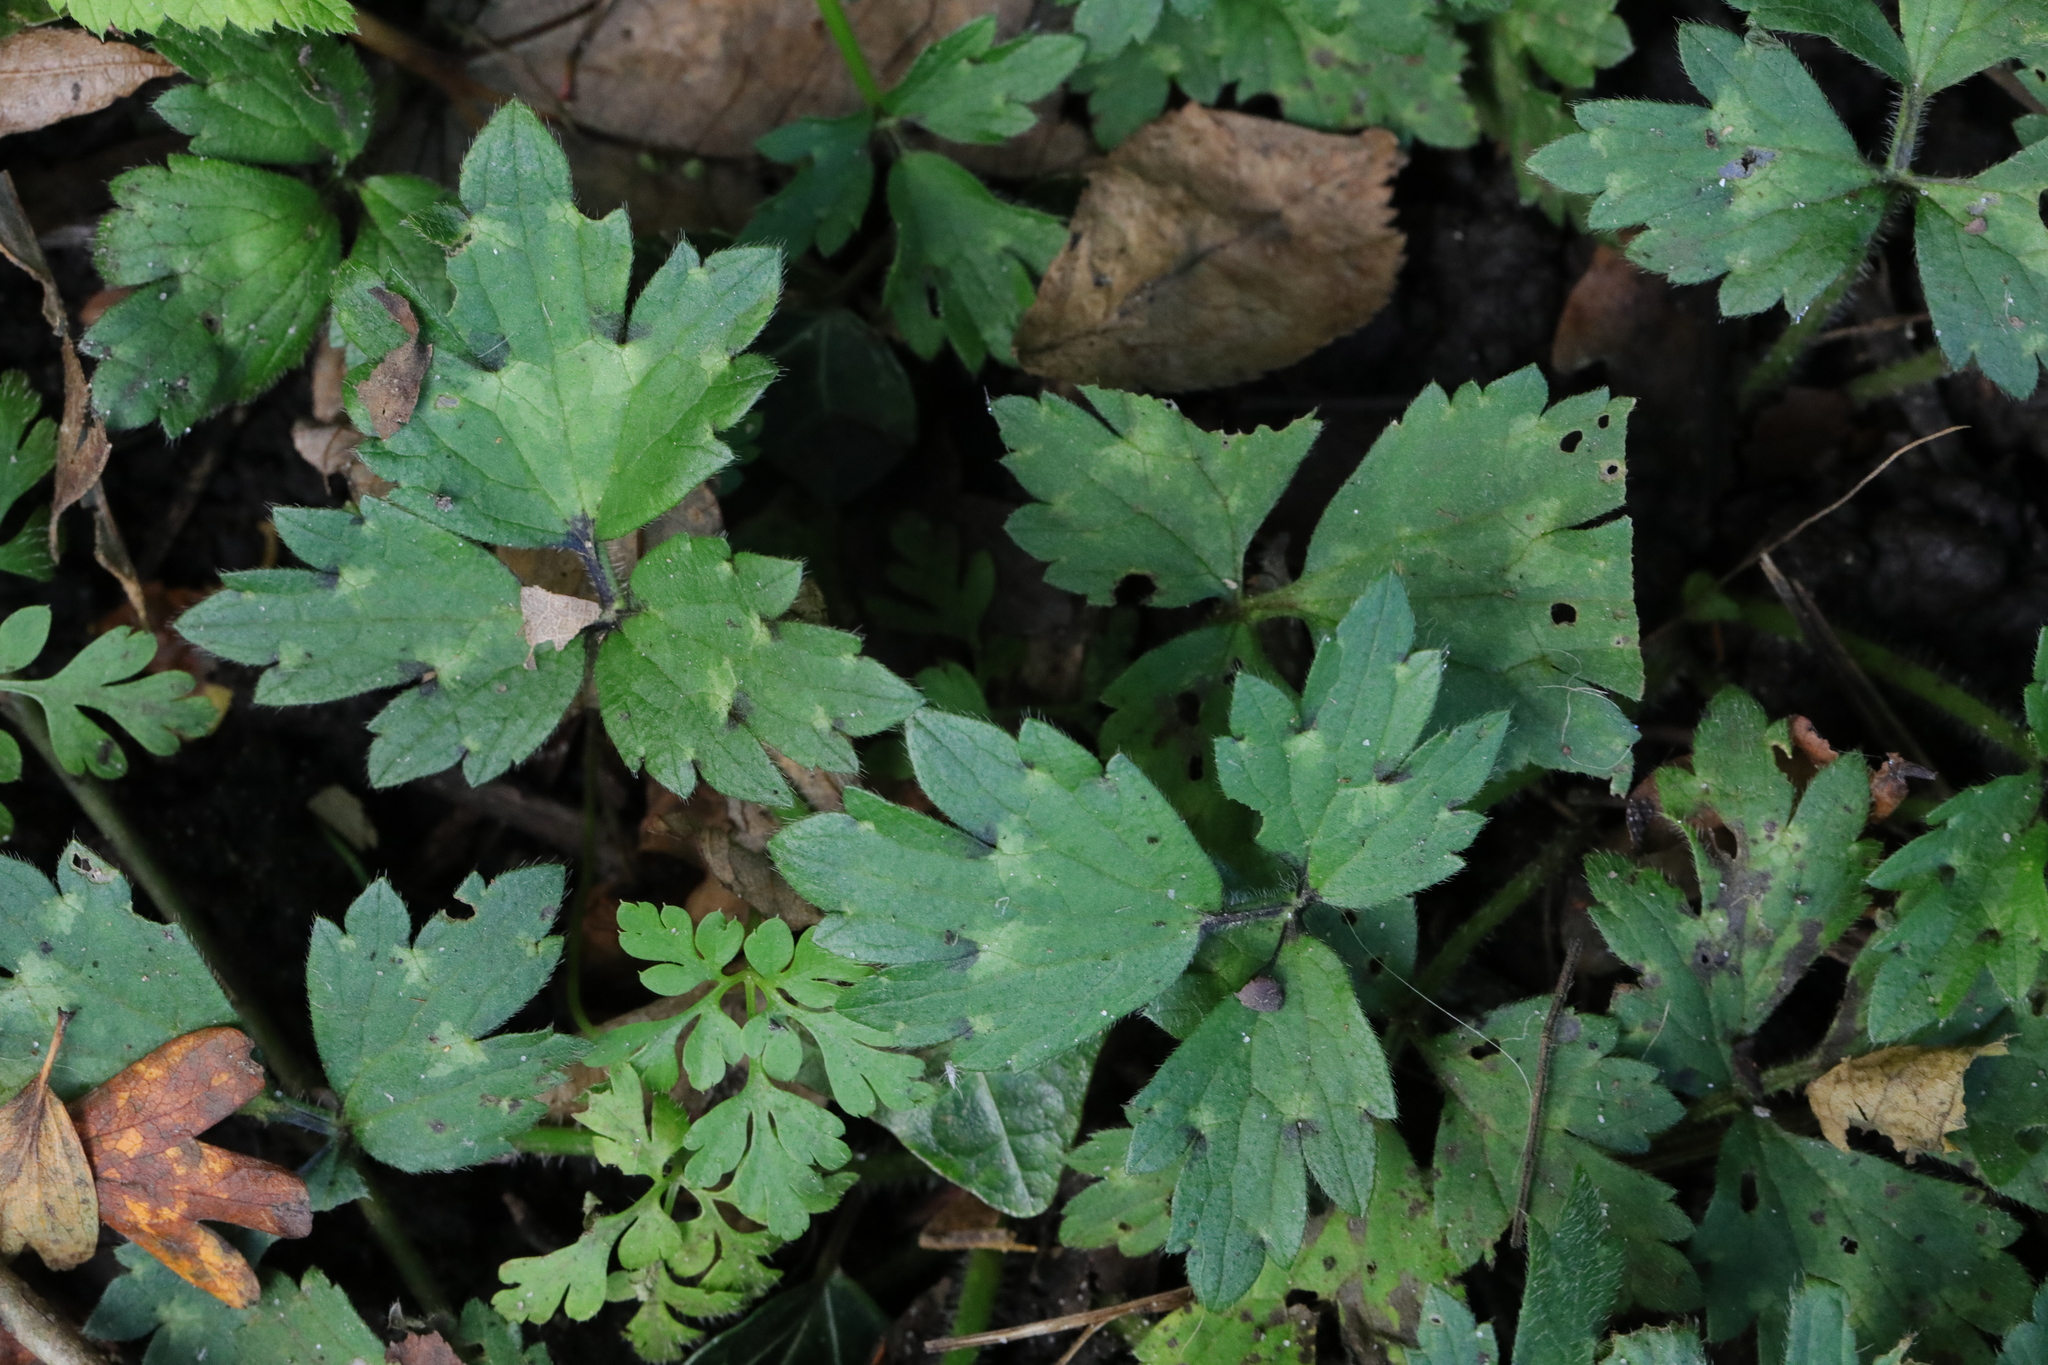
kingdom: Plantae
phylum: Tracheophyta
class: Magnoliopsida
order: Ranunculales
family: Ranunculaceae
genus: Ranunculus
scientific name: Ranunculus repens
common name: Creeping buttercup
